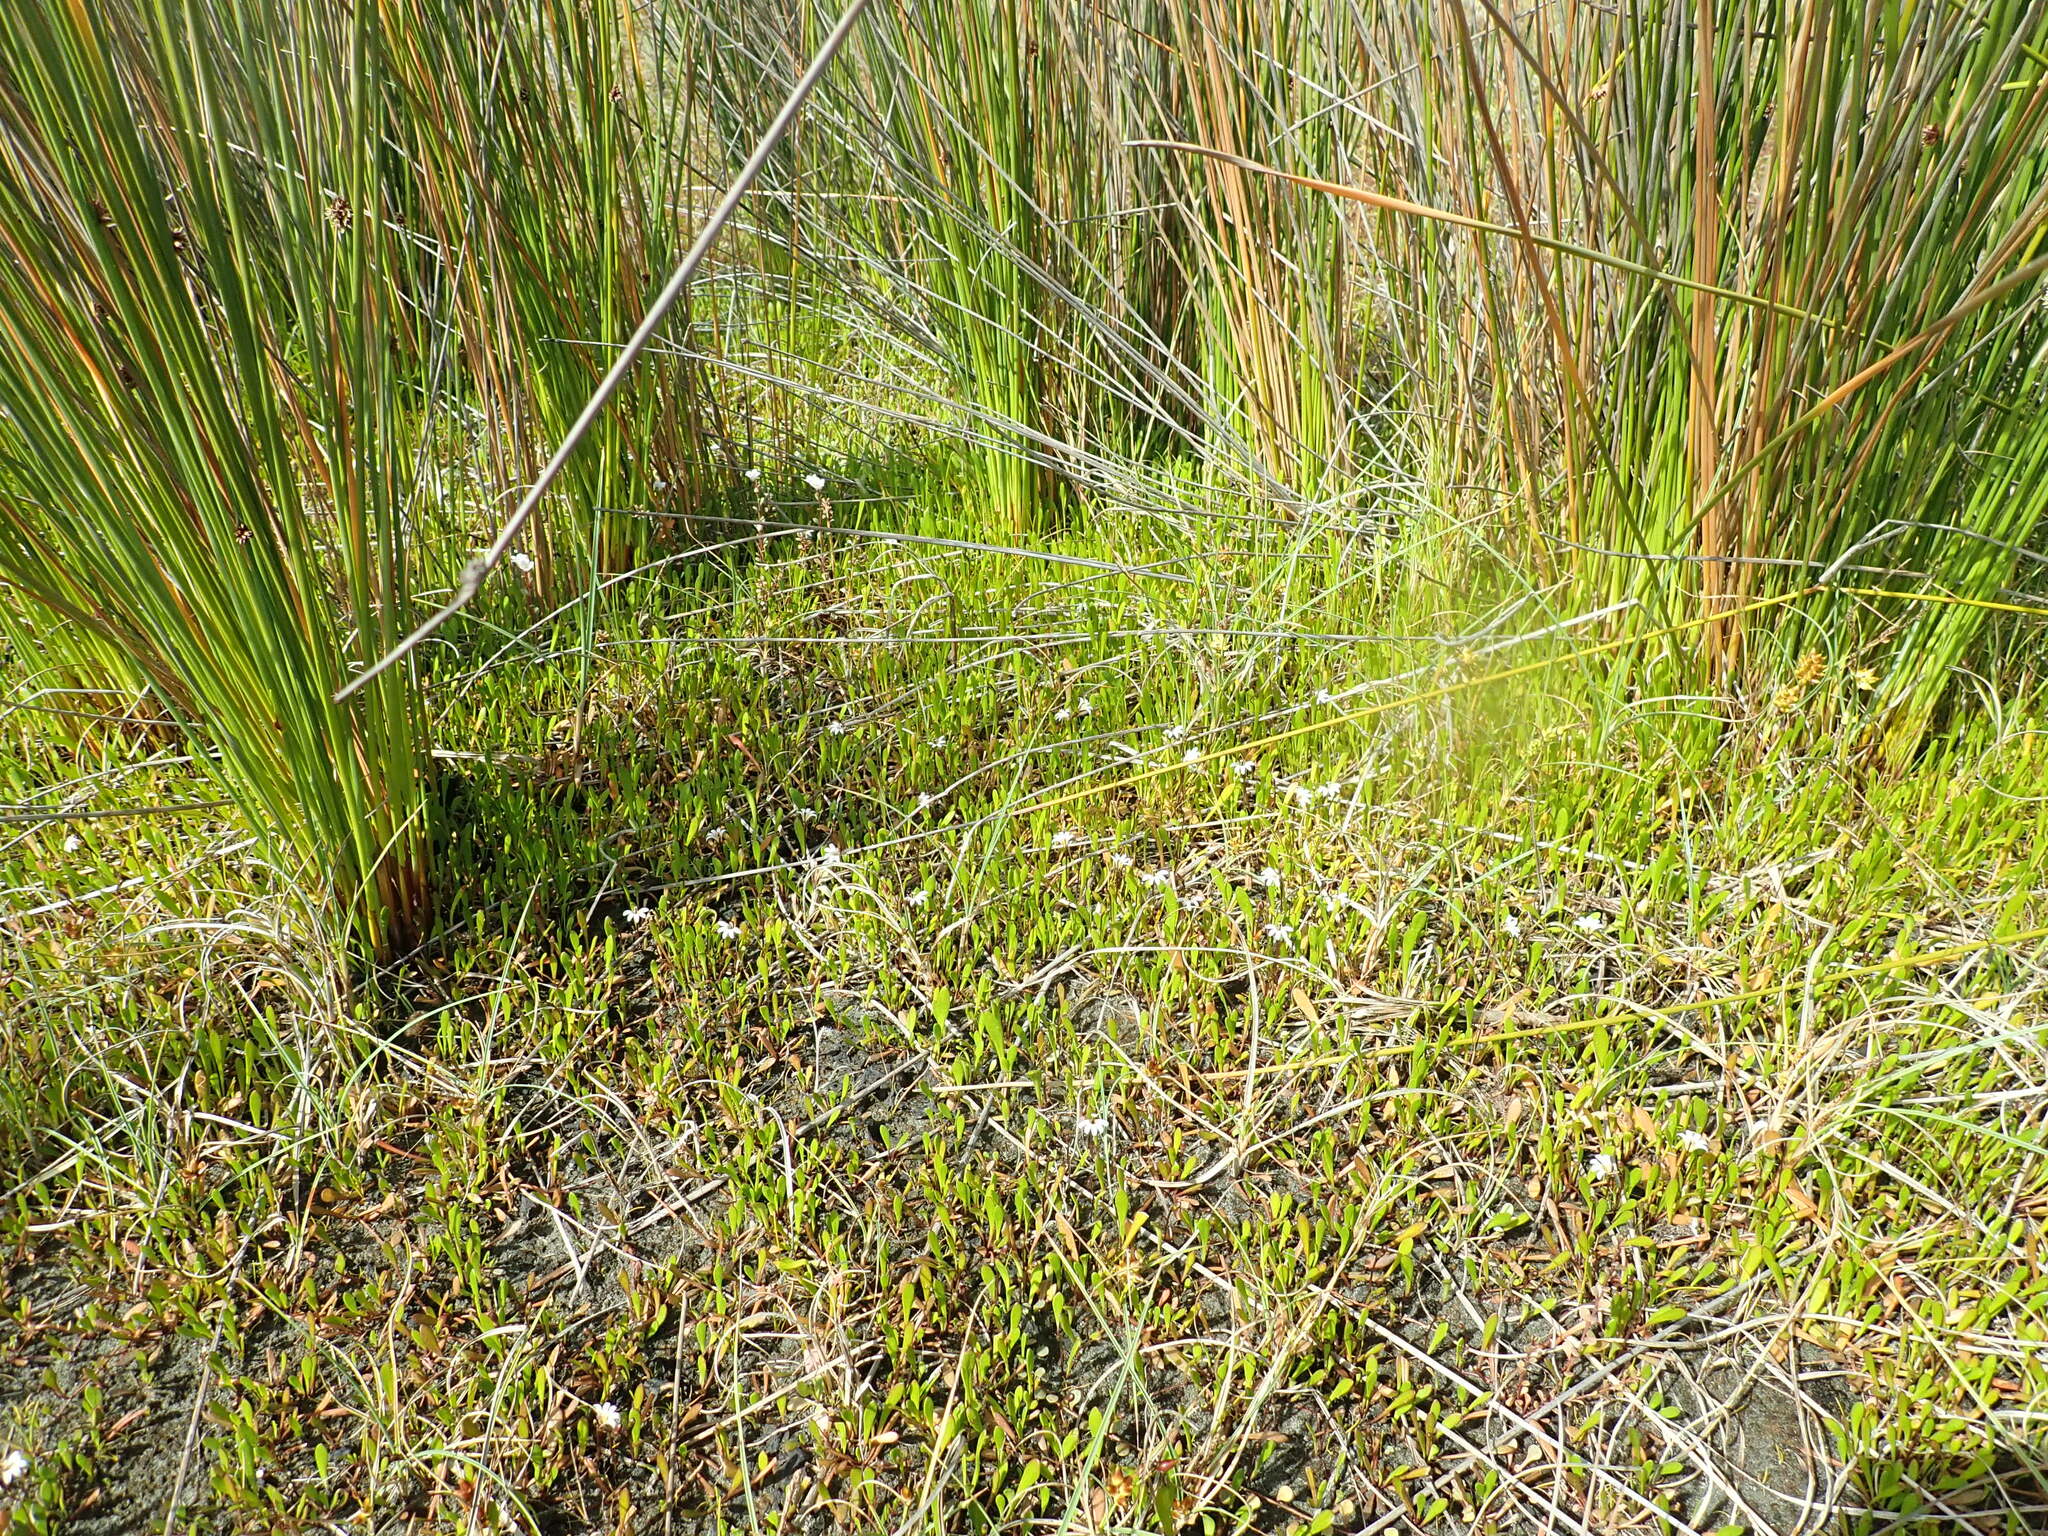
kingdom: Plantae
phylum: Tracheophyta
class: Magnoliopsida
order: Asterales
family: Goodeniaceae
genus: Goodenia
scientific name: Goodenia radicans
